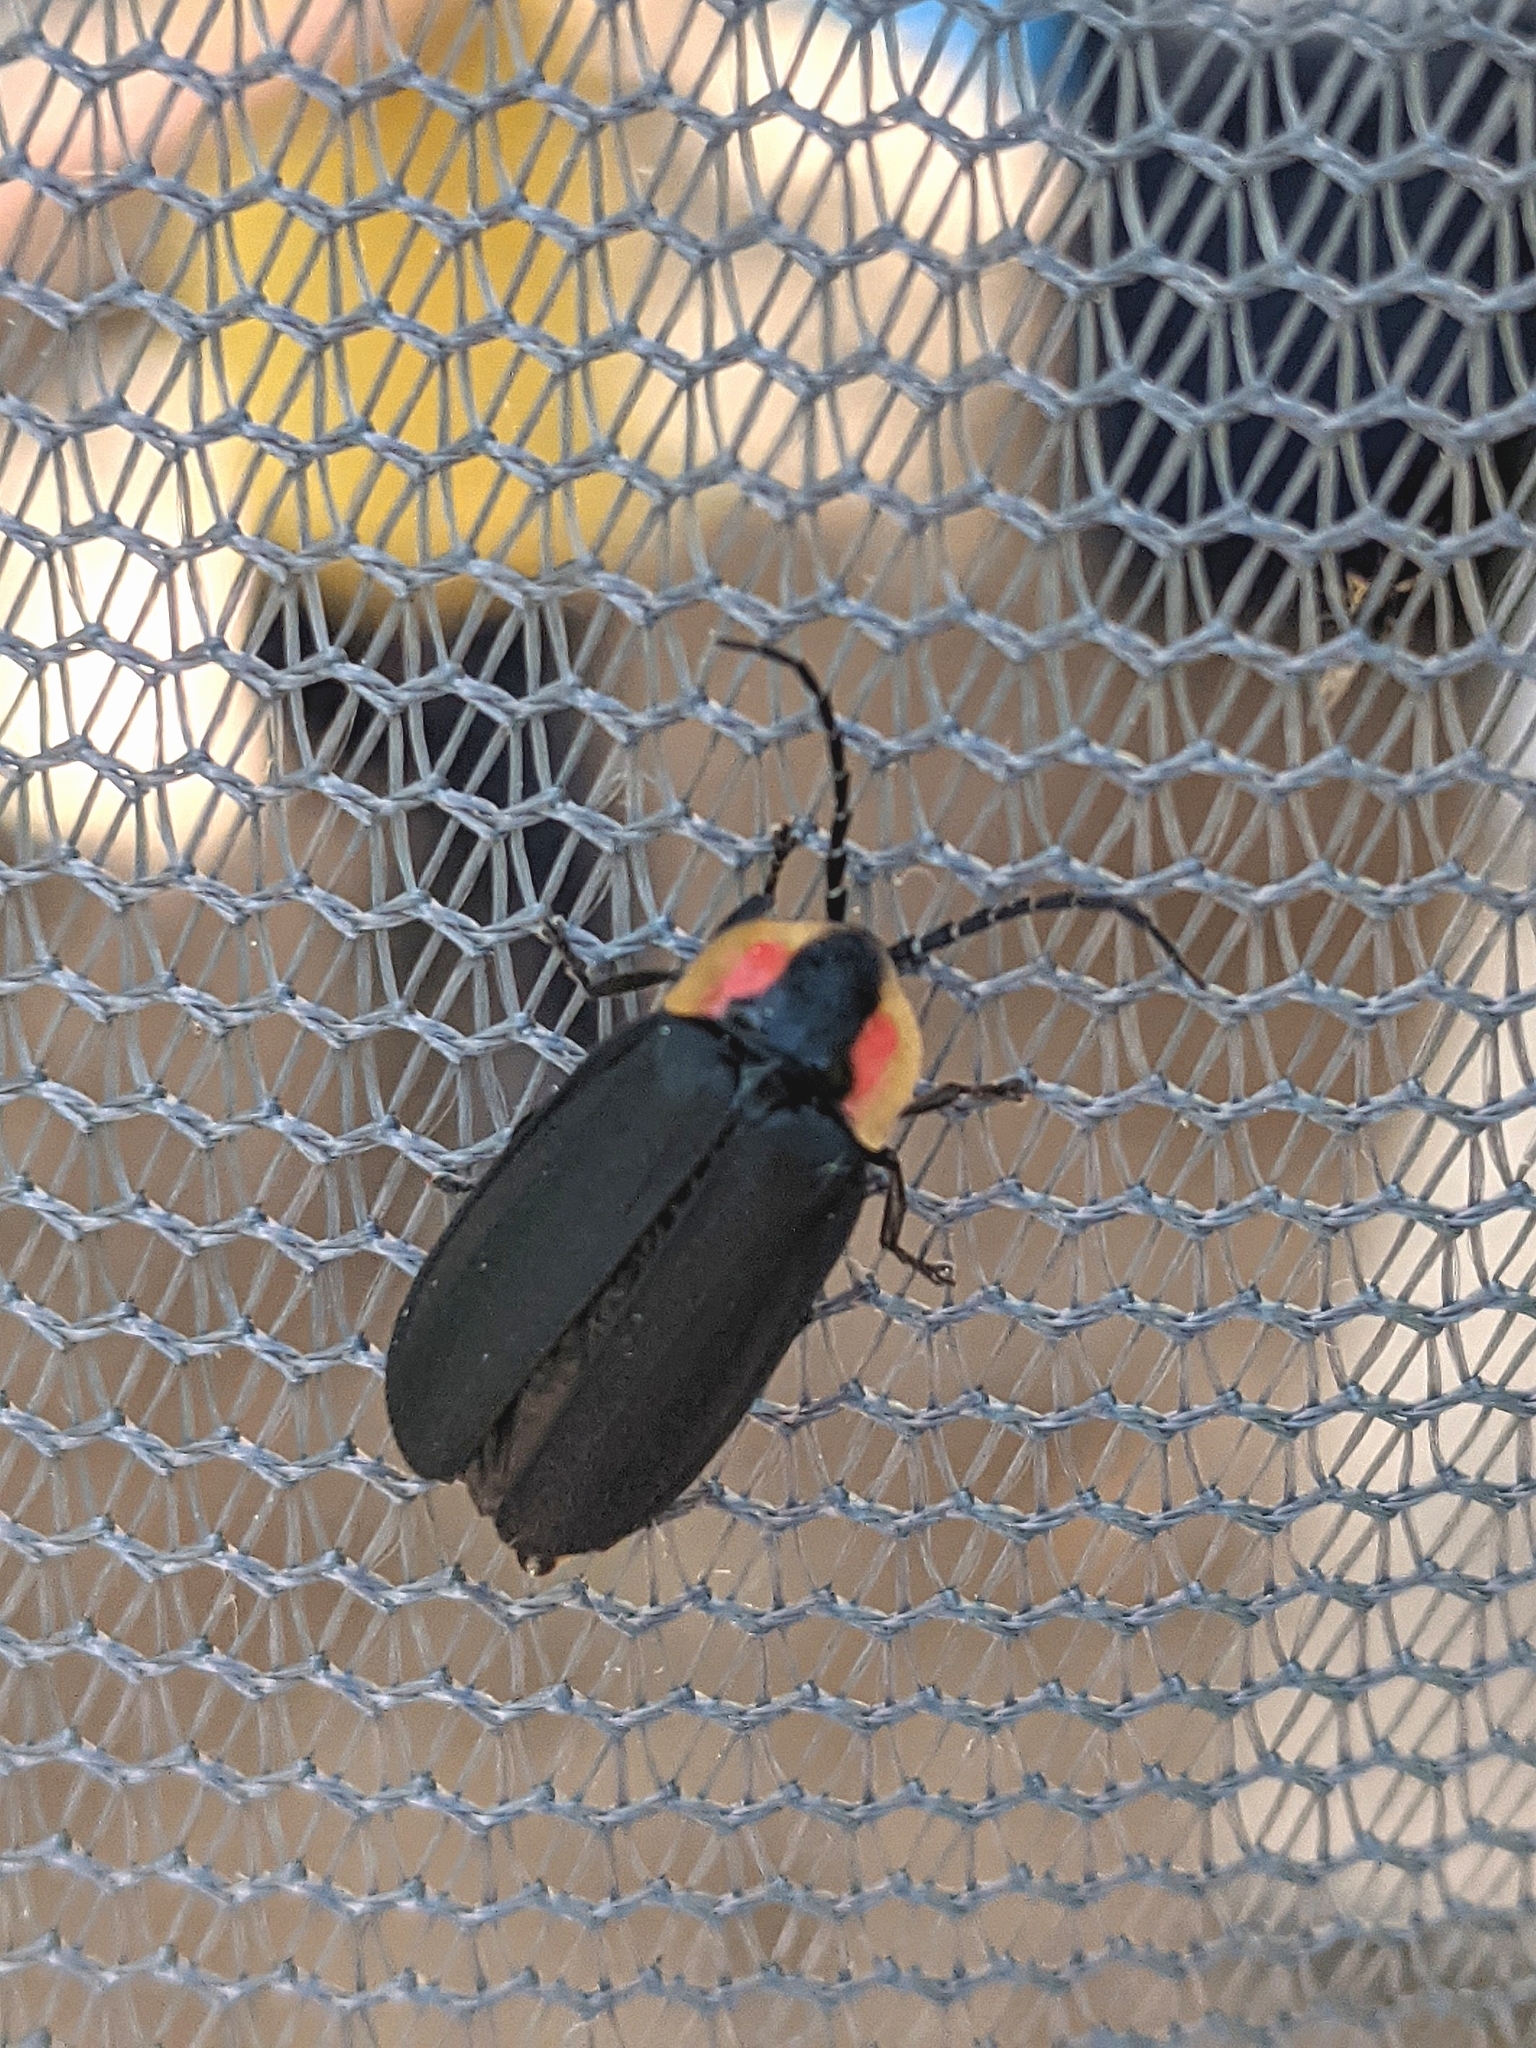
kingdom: Animalia
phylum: Arthropoda
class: Insecta
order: Coleoptera
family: Lampyridae
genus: Lucidota
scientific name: Lucidota atra
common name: Black firefly
